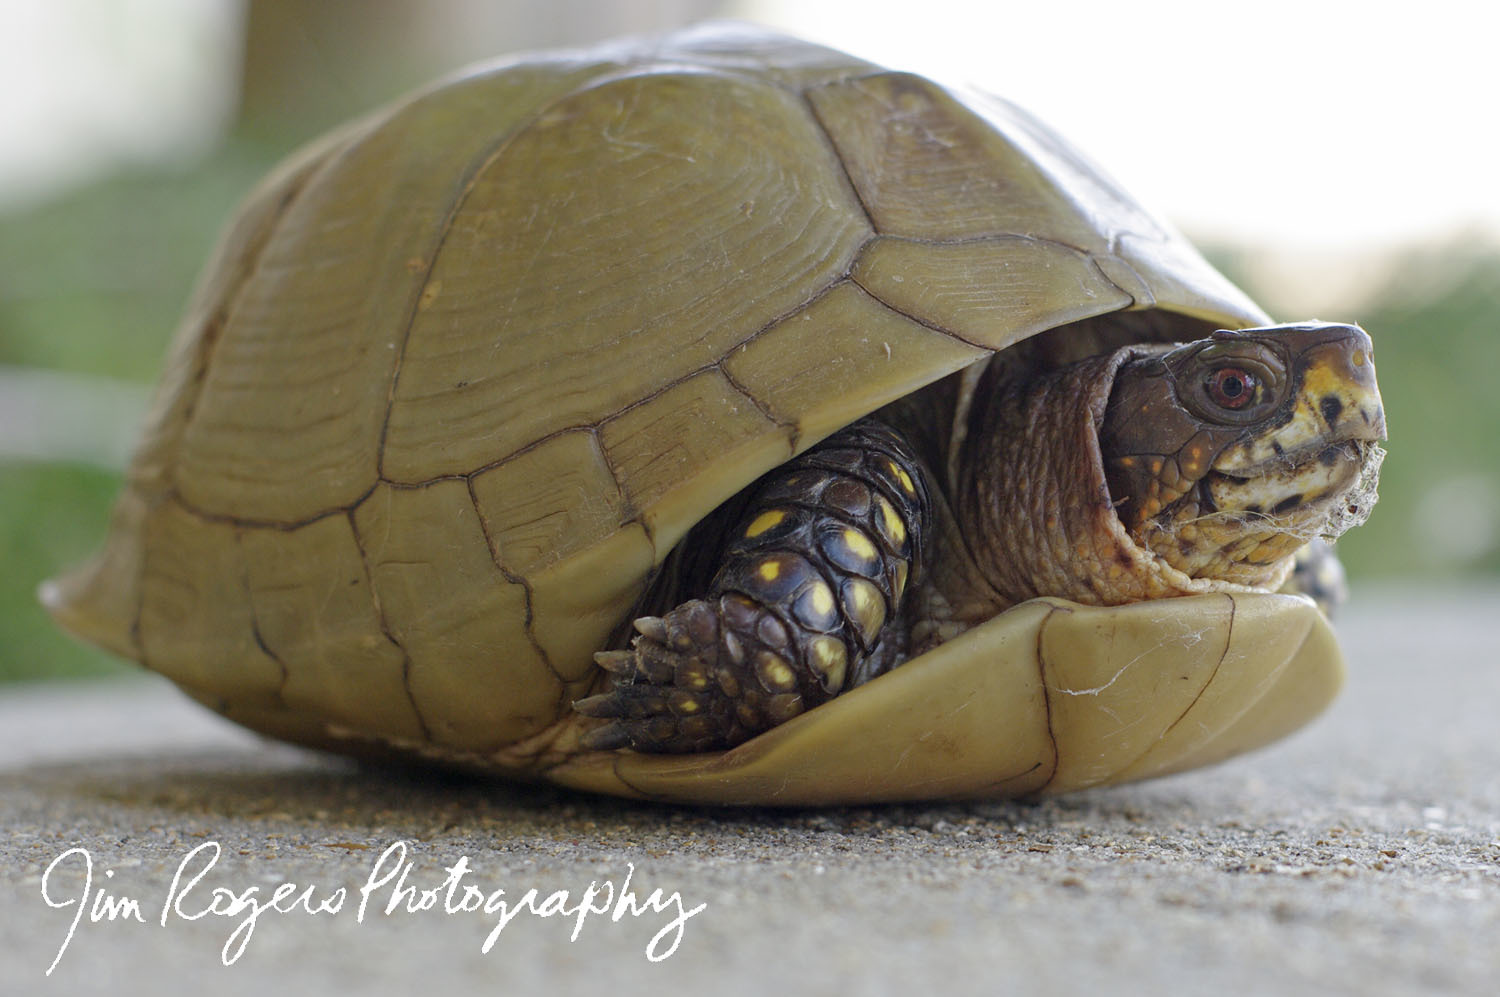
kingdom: Animalia
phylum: Chordata
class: Testudines
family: Emydidae
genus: Terrapene
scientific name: Terrapene carolina
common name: Common box turtle
